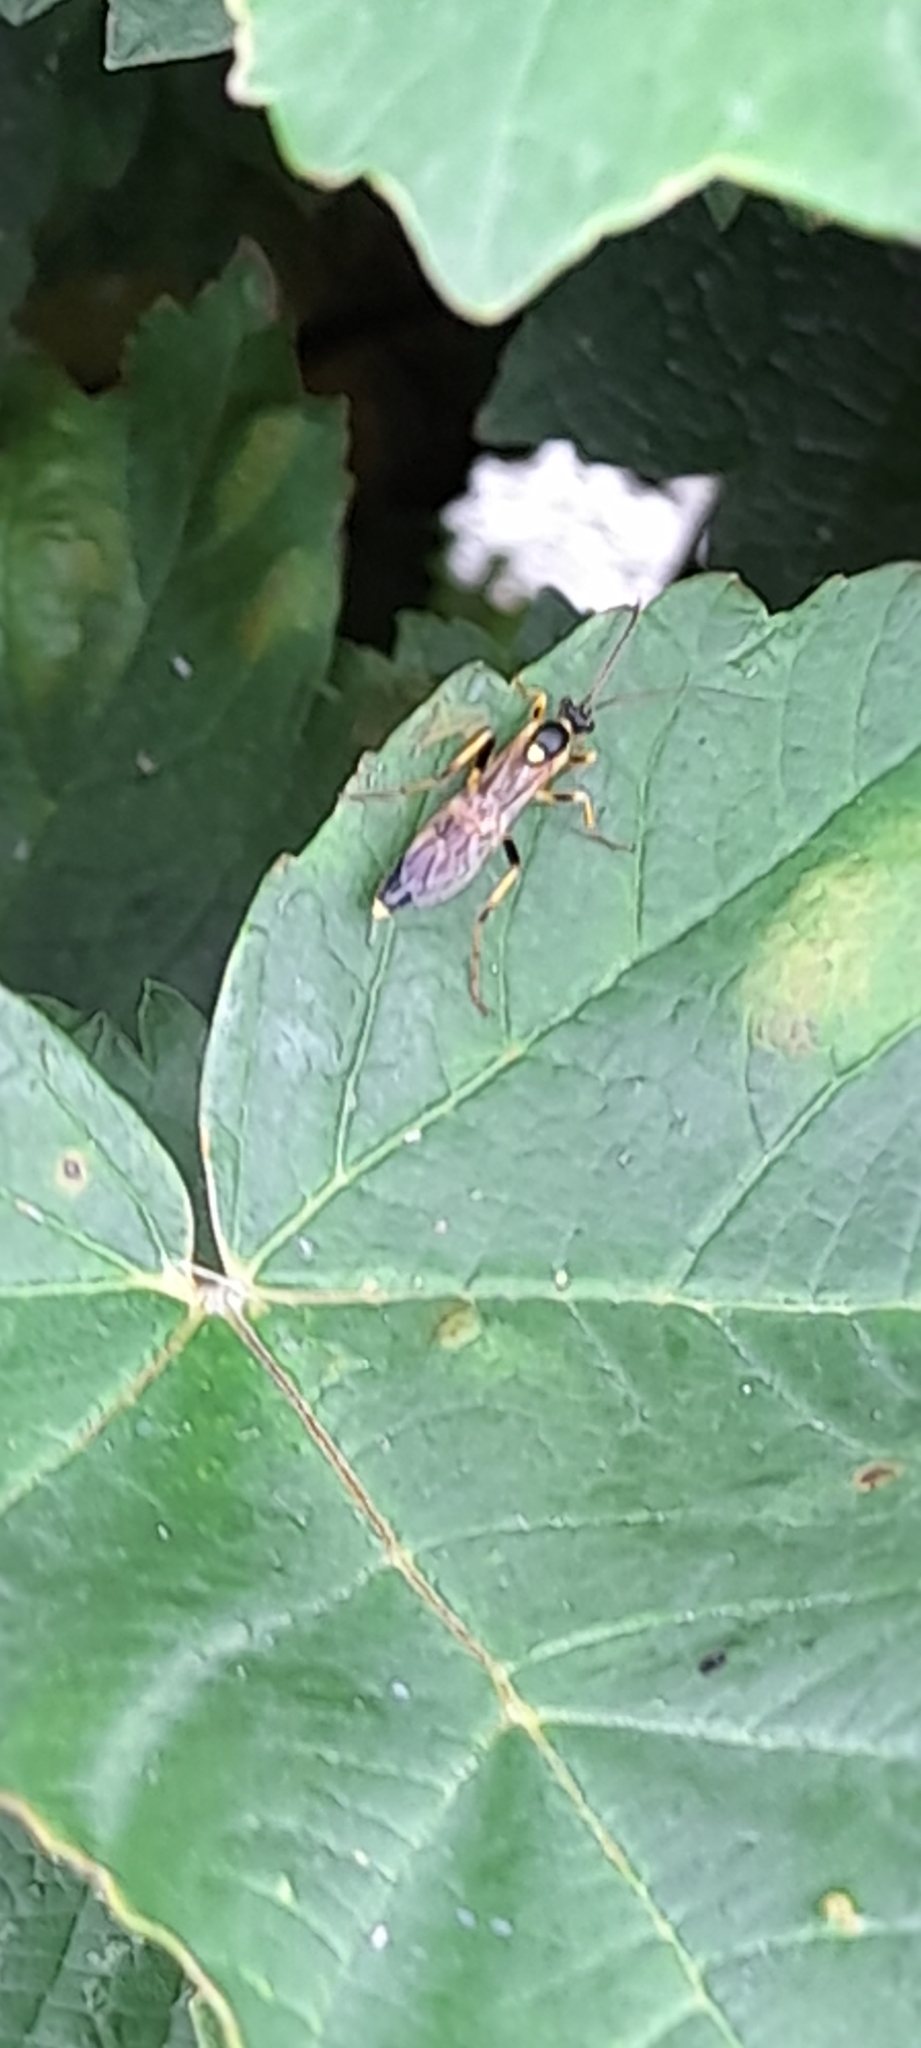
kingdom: Animalia
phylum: Arthropoda
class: Insecta
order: Hymenoptera
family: Ichneumonidae
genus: Amblyteles
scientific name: Amblyteles armatorius
